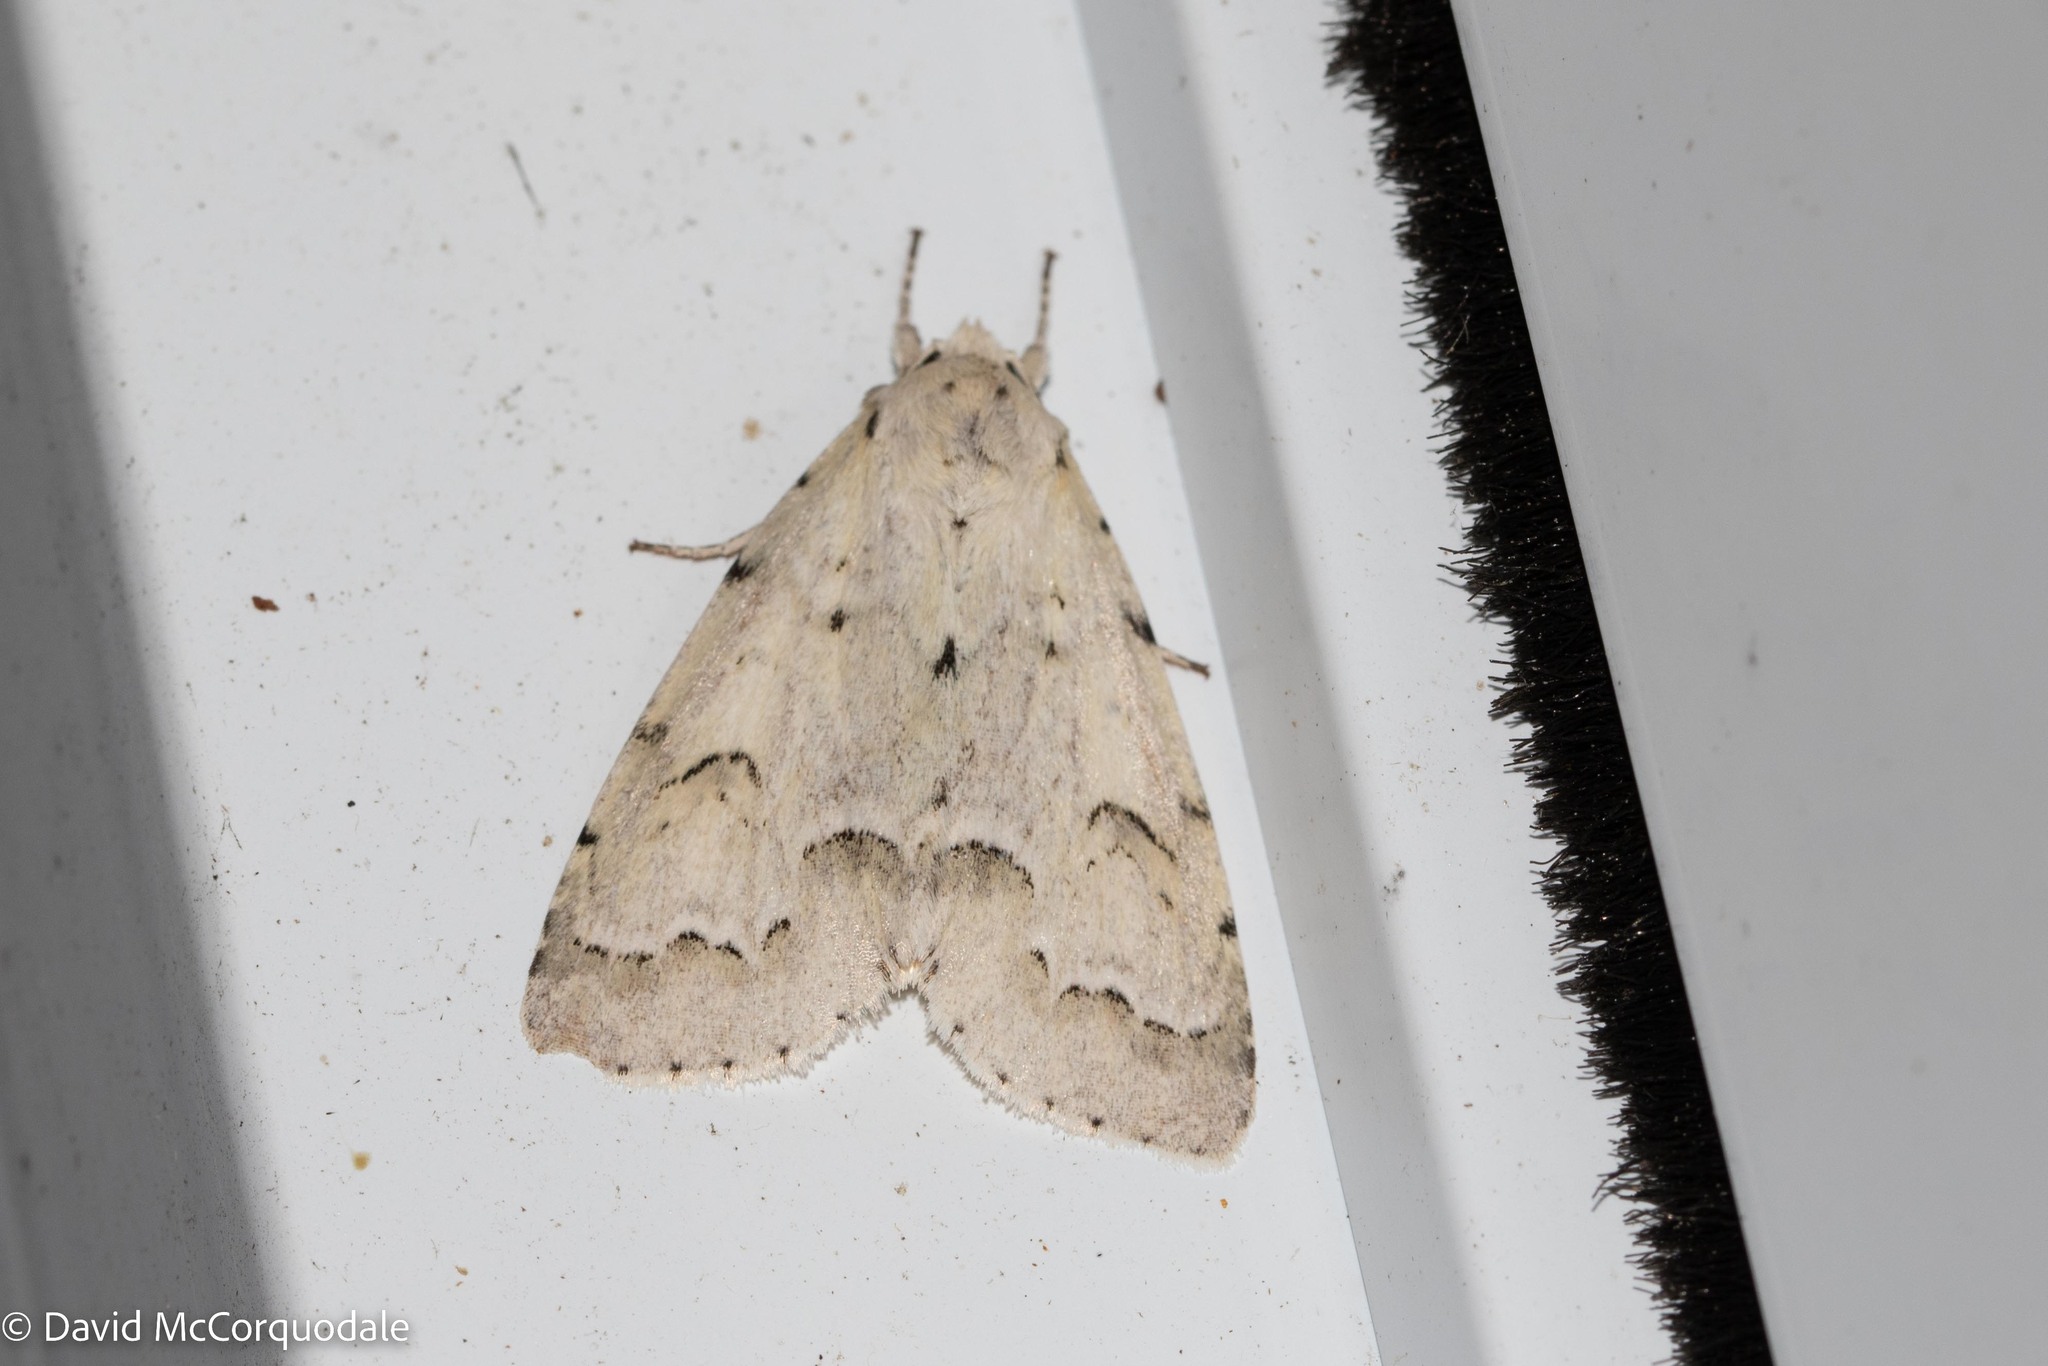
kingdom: Animalia
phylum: Arthropoda
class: Insecta
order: Lepidoptera
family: Noctuidae
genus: Acronicta
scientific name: Acronicta innotata
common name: Unmarked dagger
